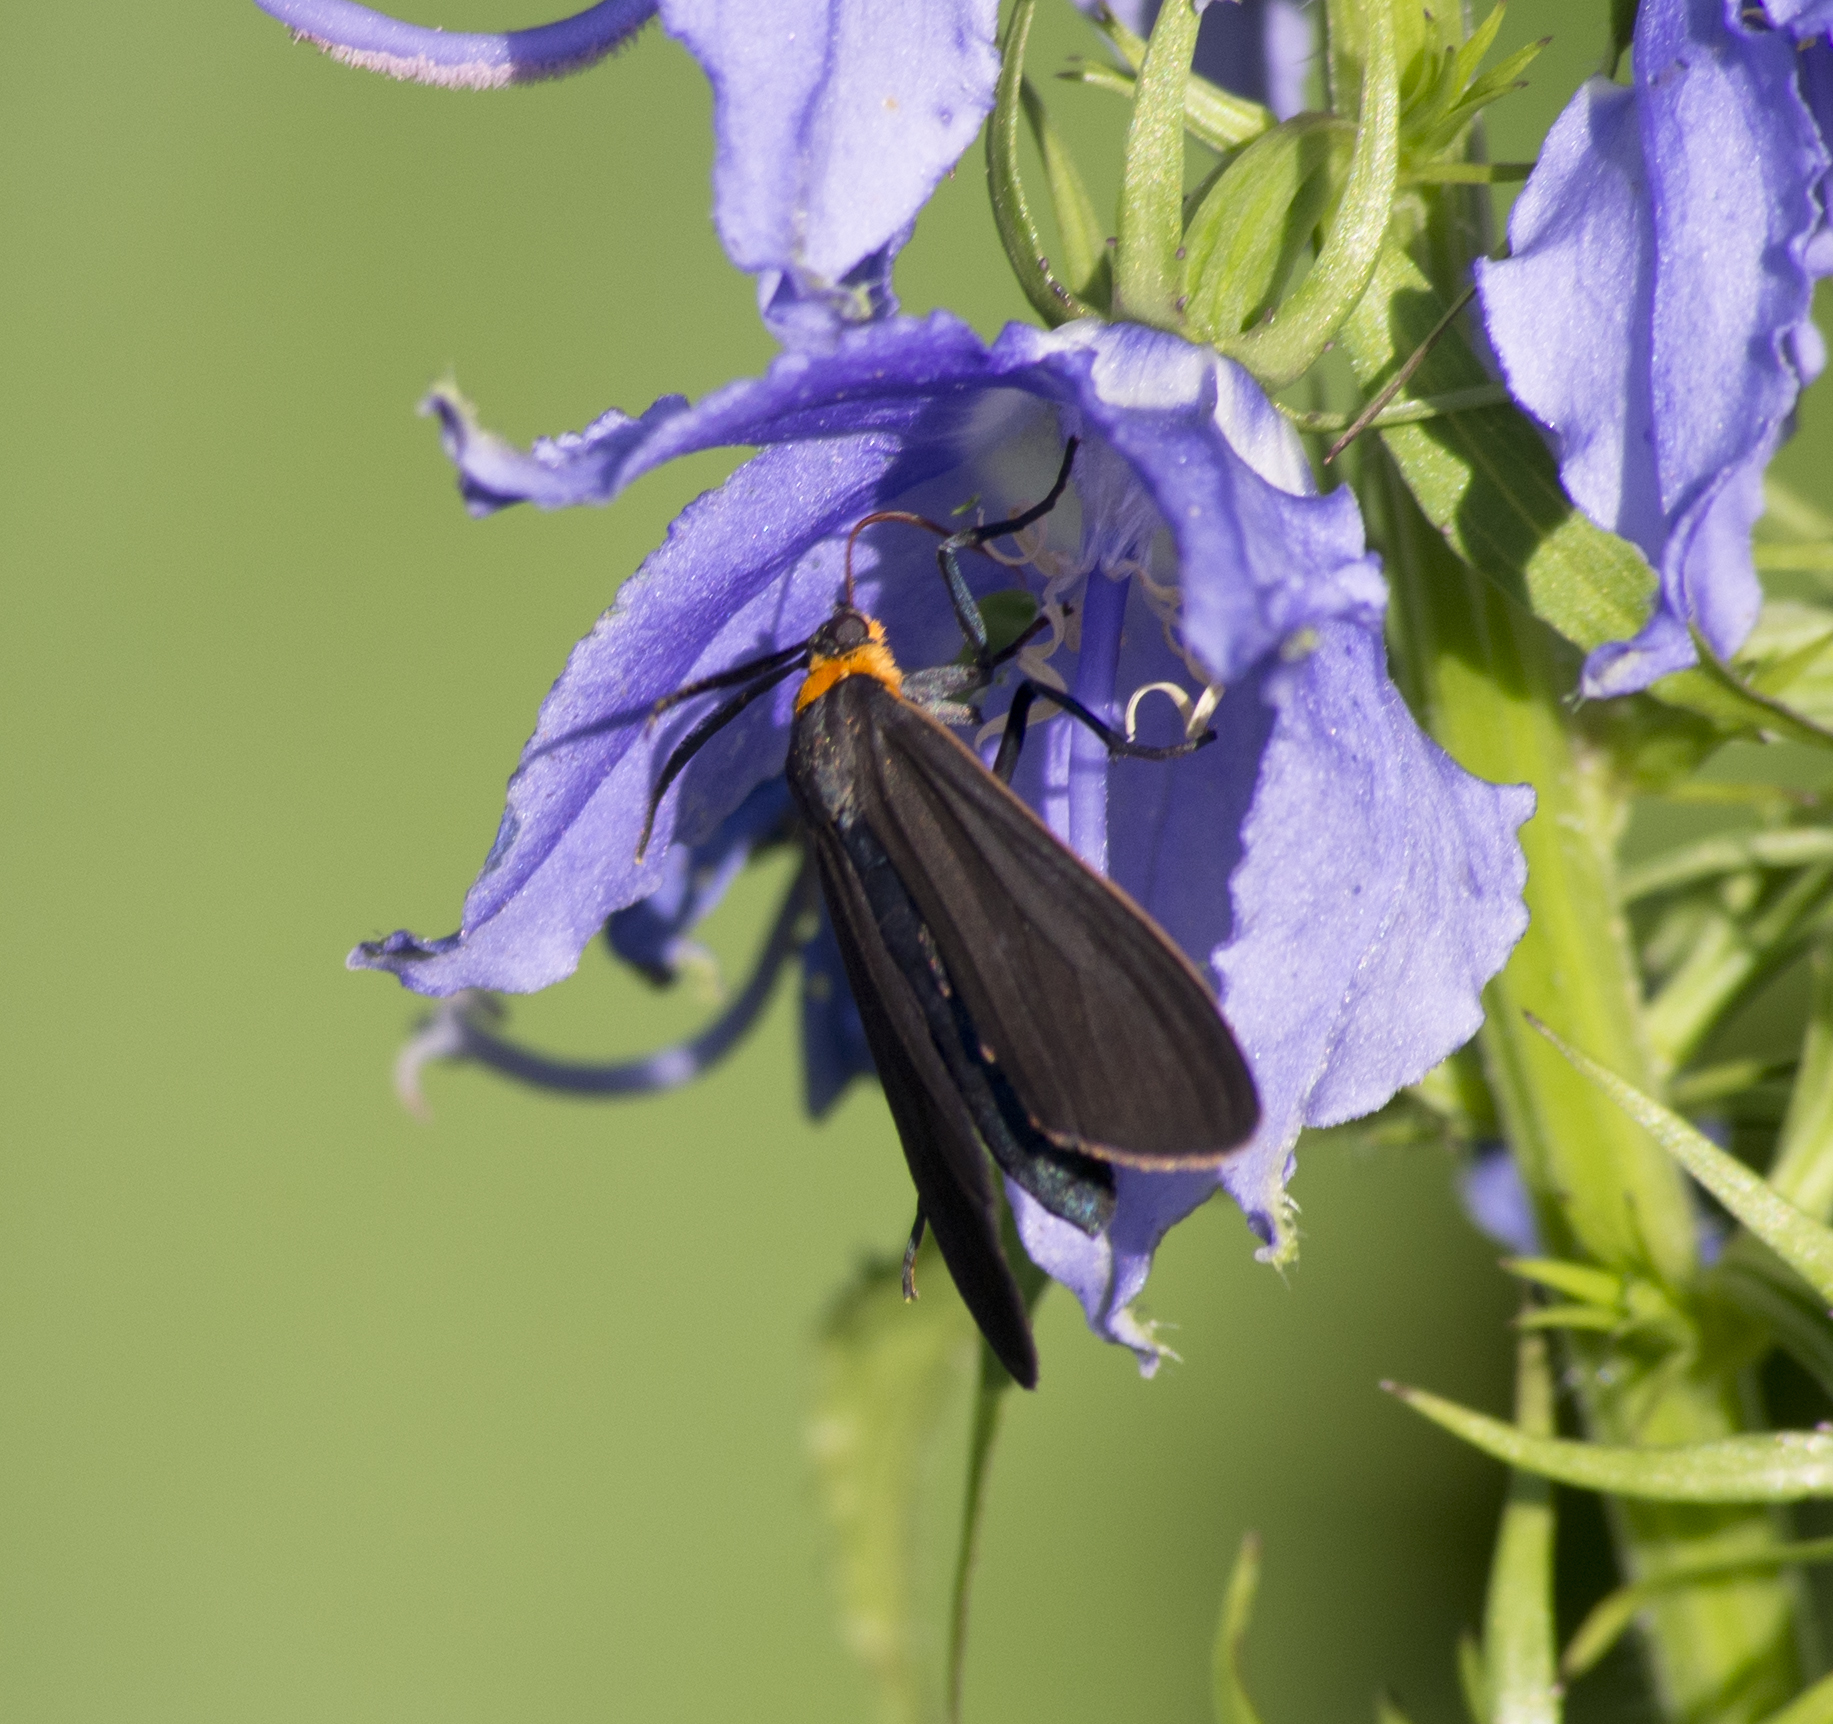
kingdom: Animalia
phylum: Arthropoda
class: Insecta
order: Lepidoptera
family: Erebidae
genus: Cisseps
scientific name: Cisseps fulvicollis
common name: Yellow-collared scape moth
